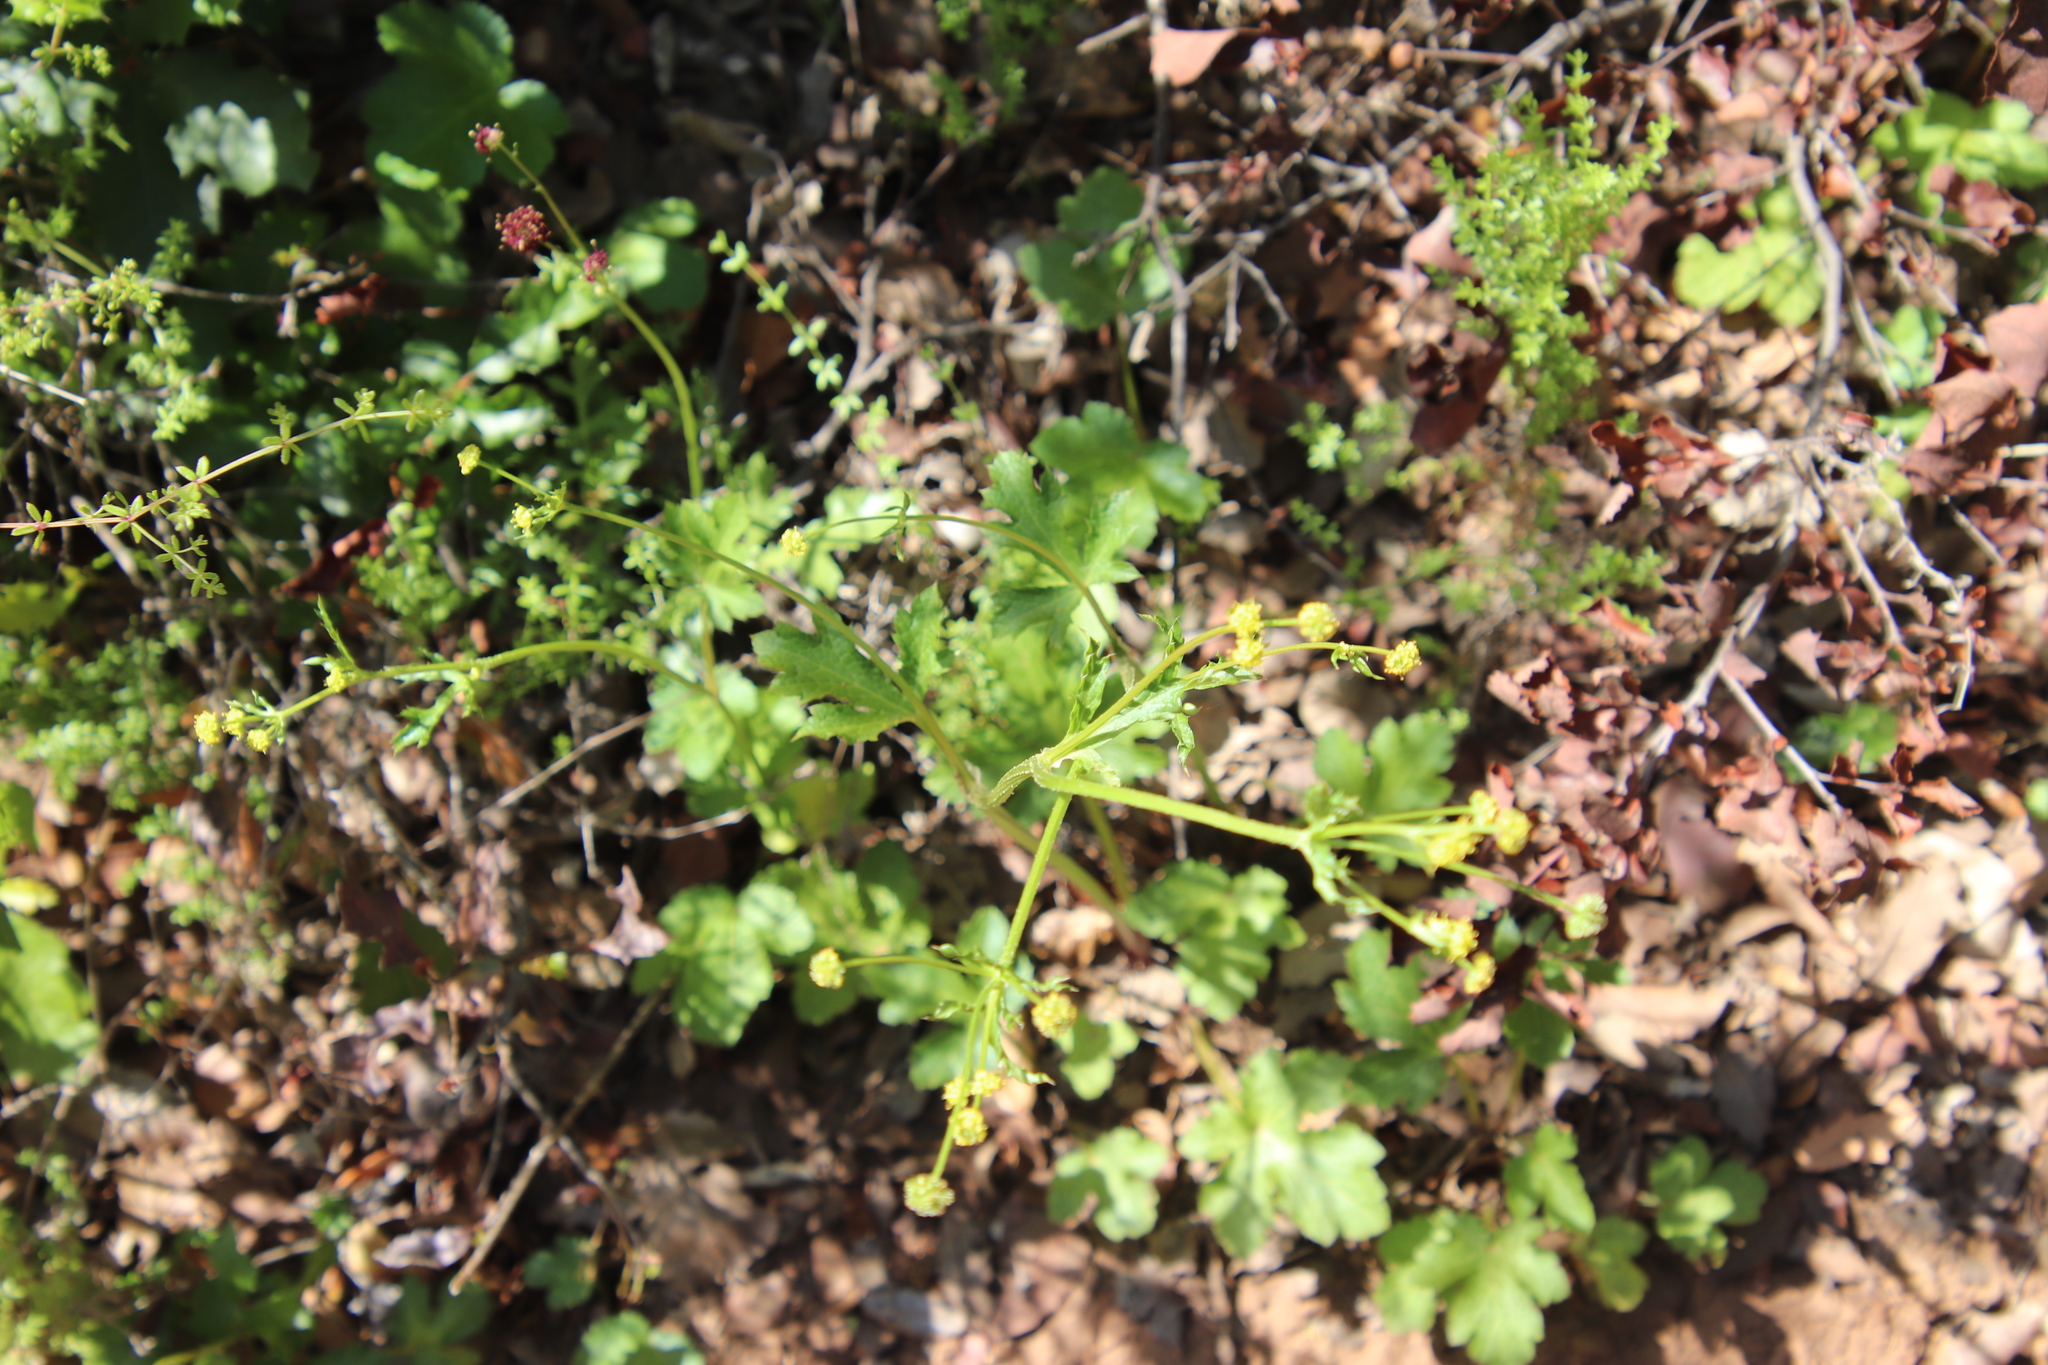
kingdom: Plantae
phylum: Tracheophyta
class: Magnoliopsida
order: Apiales
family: Apiaceae
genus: Sanicula
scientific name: Sanicula crassicaulis
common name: Western snakeroot
